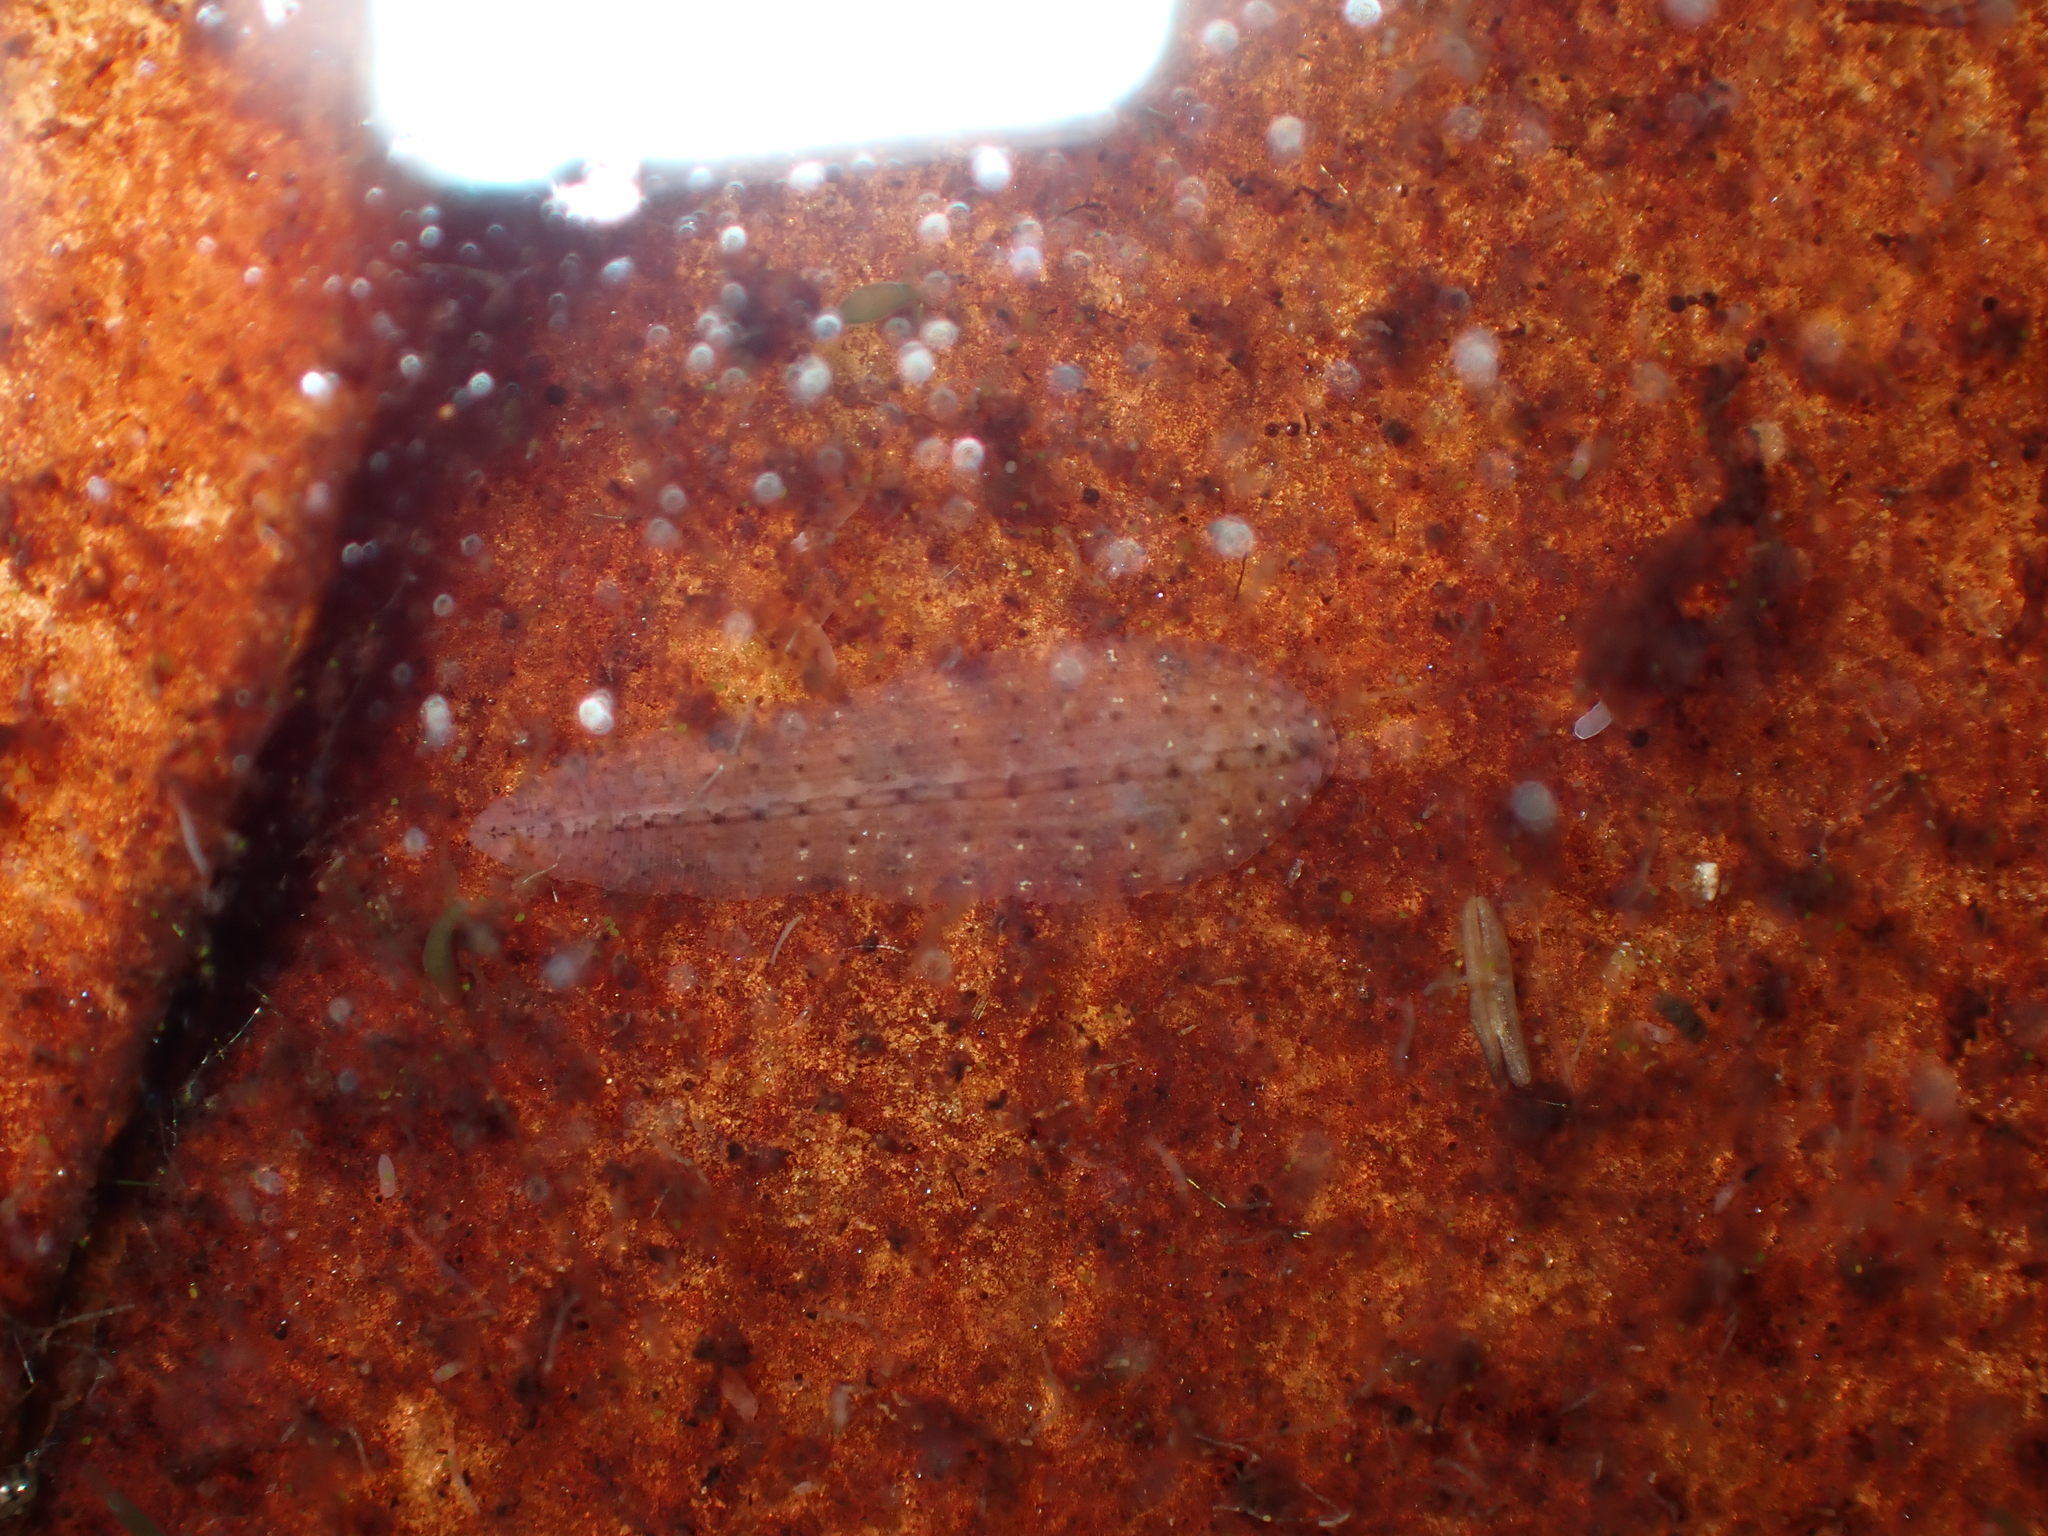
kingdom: Animalia
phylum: Annelida
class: Clitellata
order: Rhynchobdellida
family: Glossiphoniidae
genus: Helobdella
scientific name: Helobdella europaea
